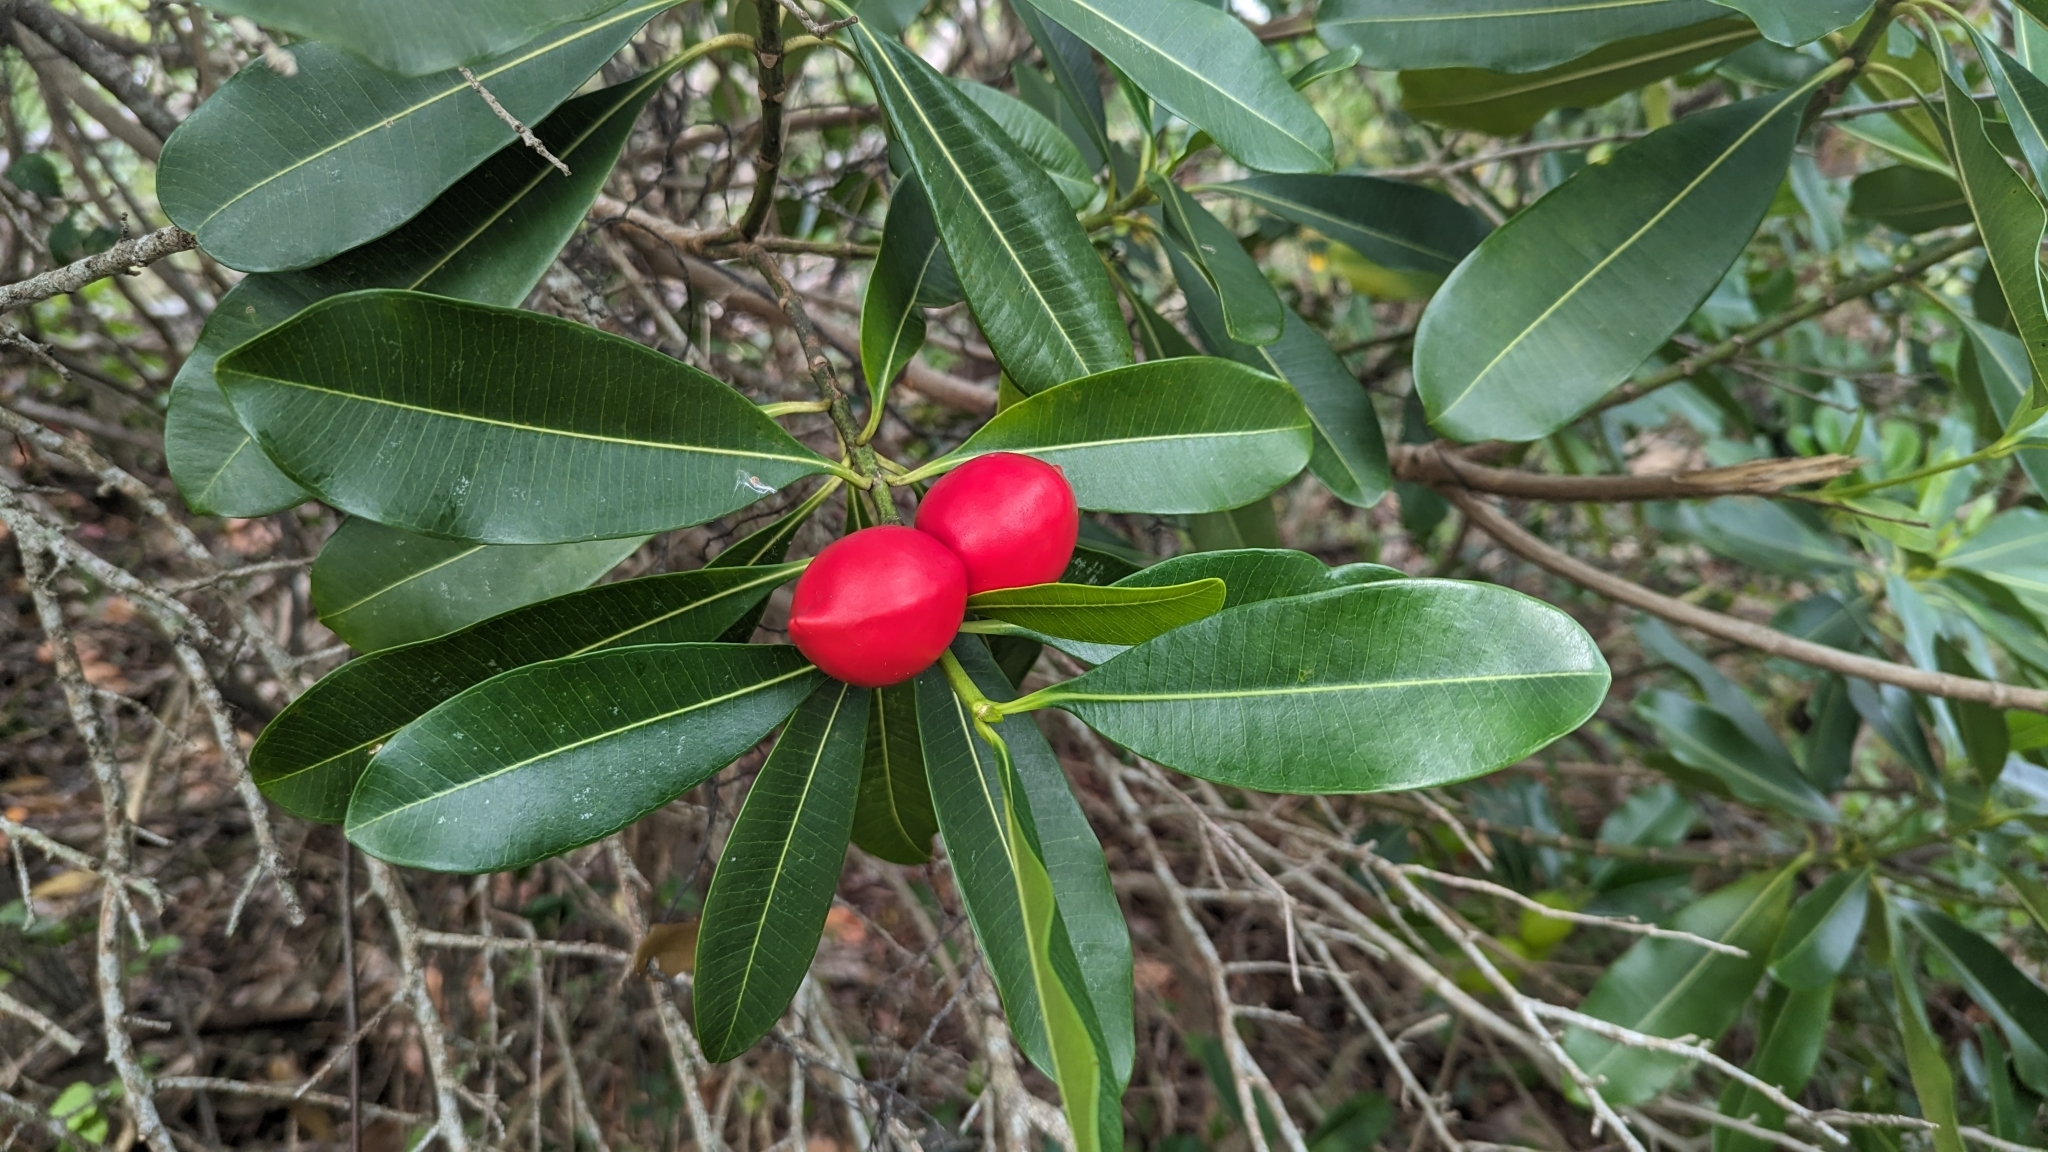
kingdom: Plantae
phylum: Tracheophyta
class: Magnoliopsida
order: Gentianales
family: Apocynaceae
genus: Ochrosia
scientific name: Ochrosia elliptica
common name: Elliptic yellowwood
